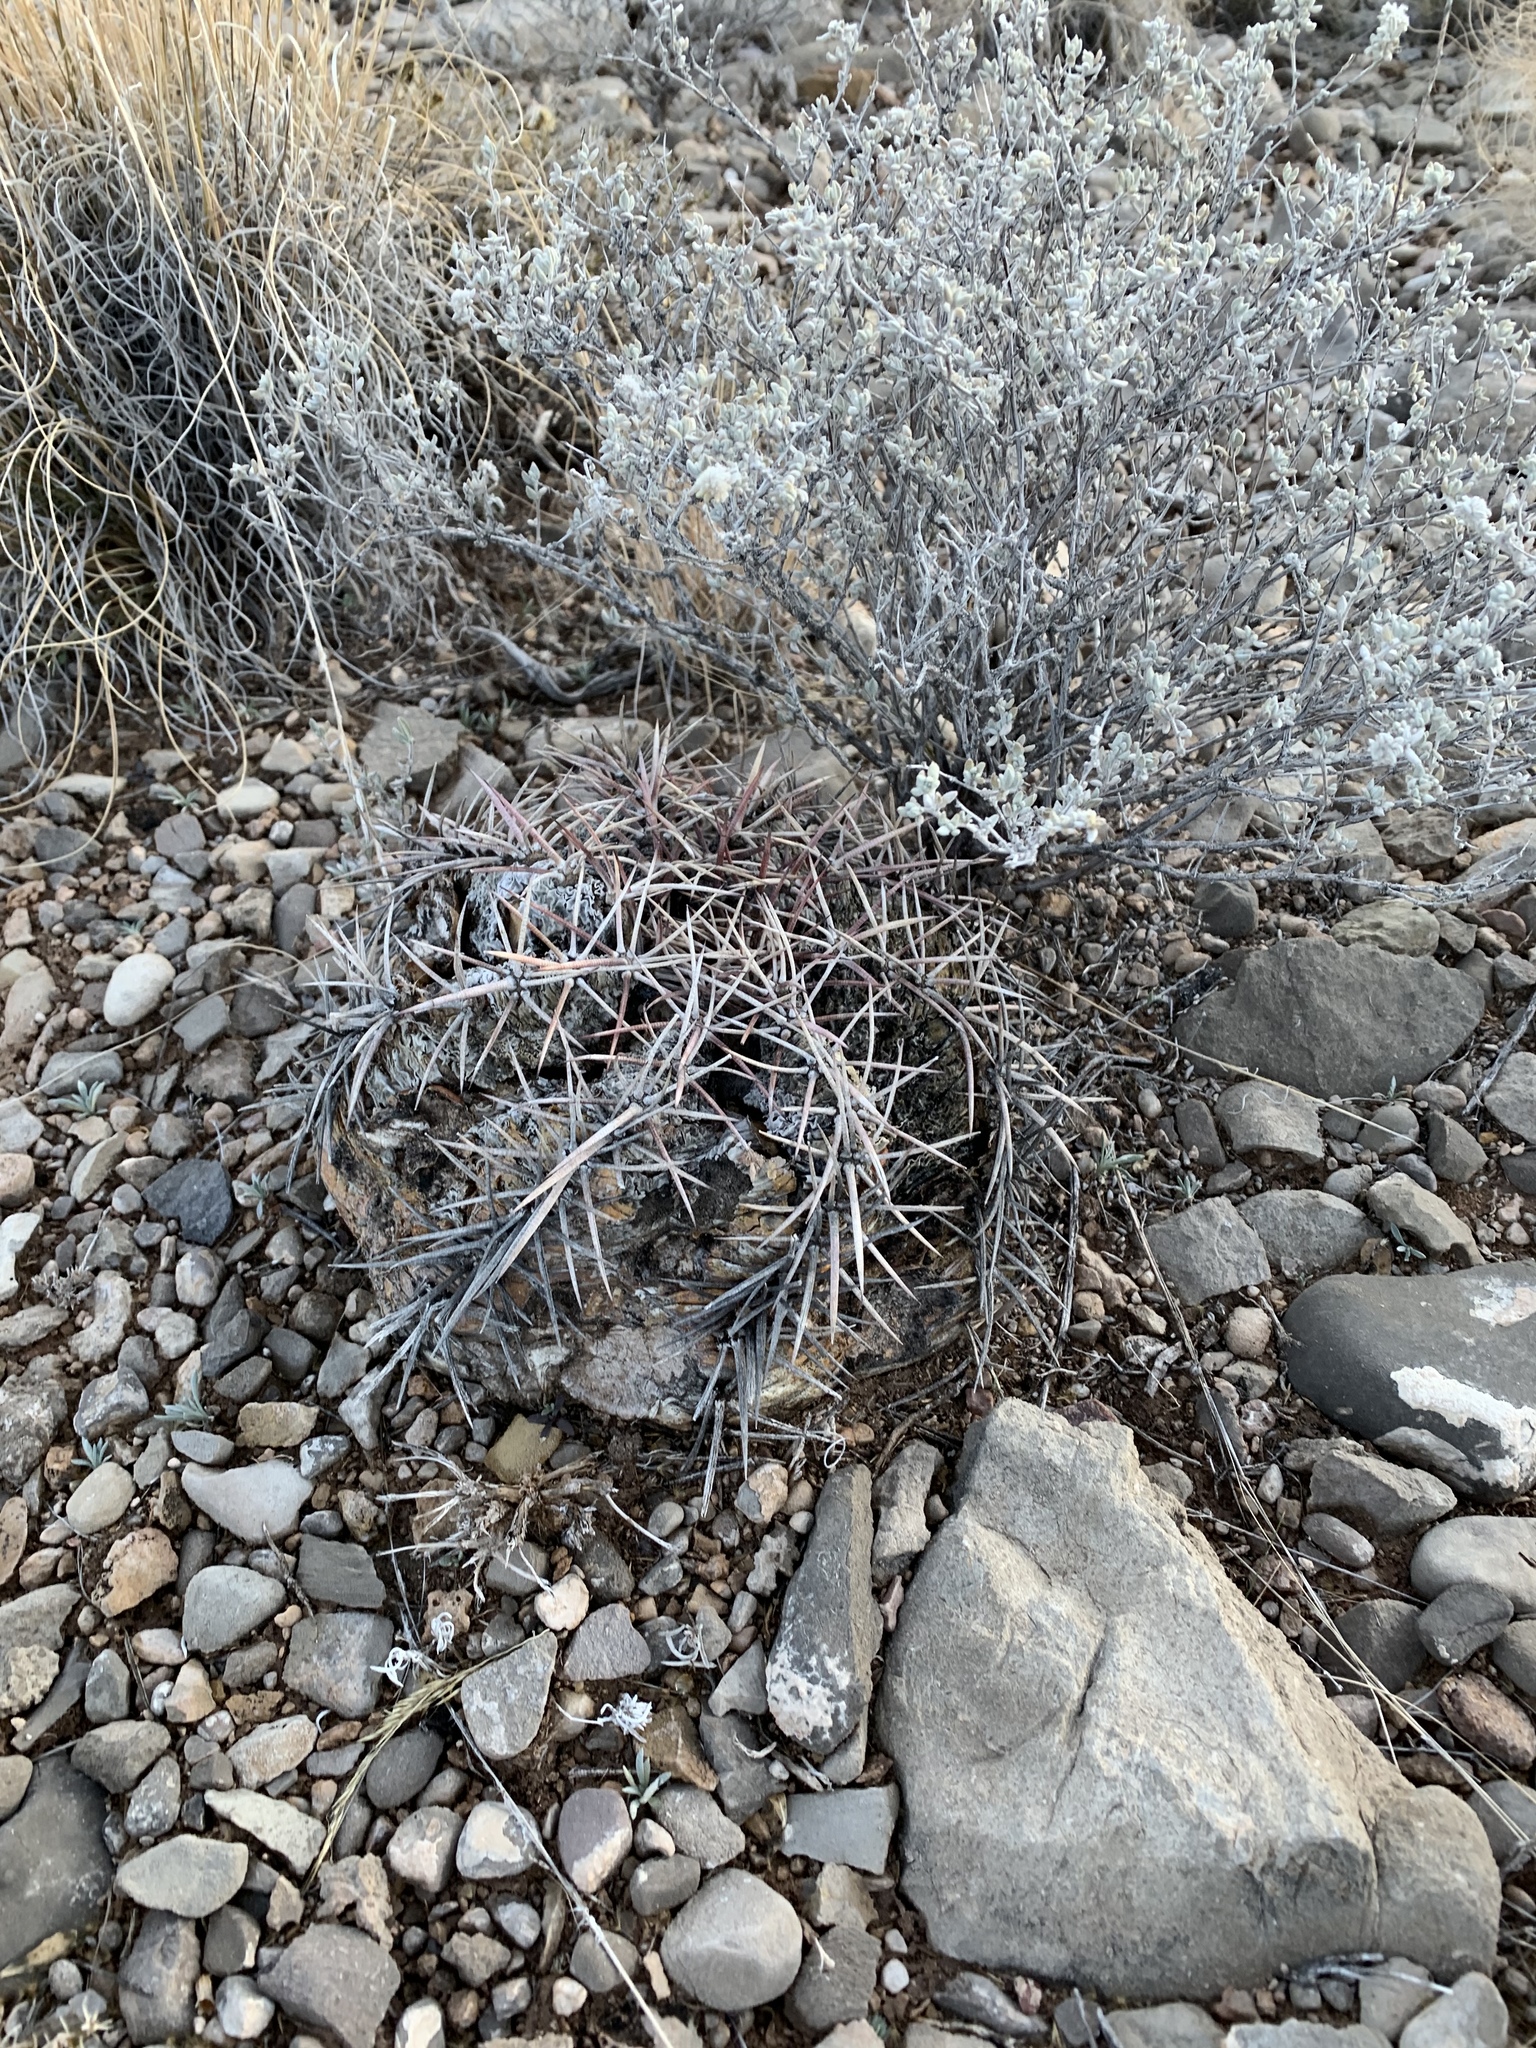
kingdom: Plantae
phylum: Tracheophyta
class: Magnoliopsida
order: Caryophyllales
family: Cactaceae
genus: Echinocactus
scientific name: Echinocactus horizonthalonius
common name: Devilshead
